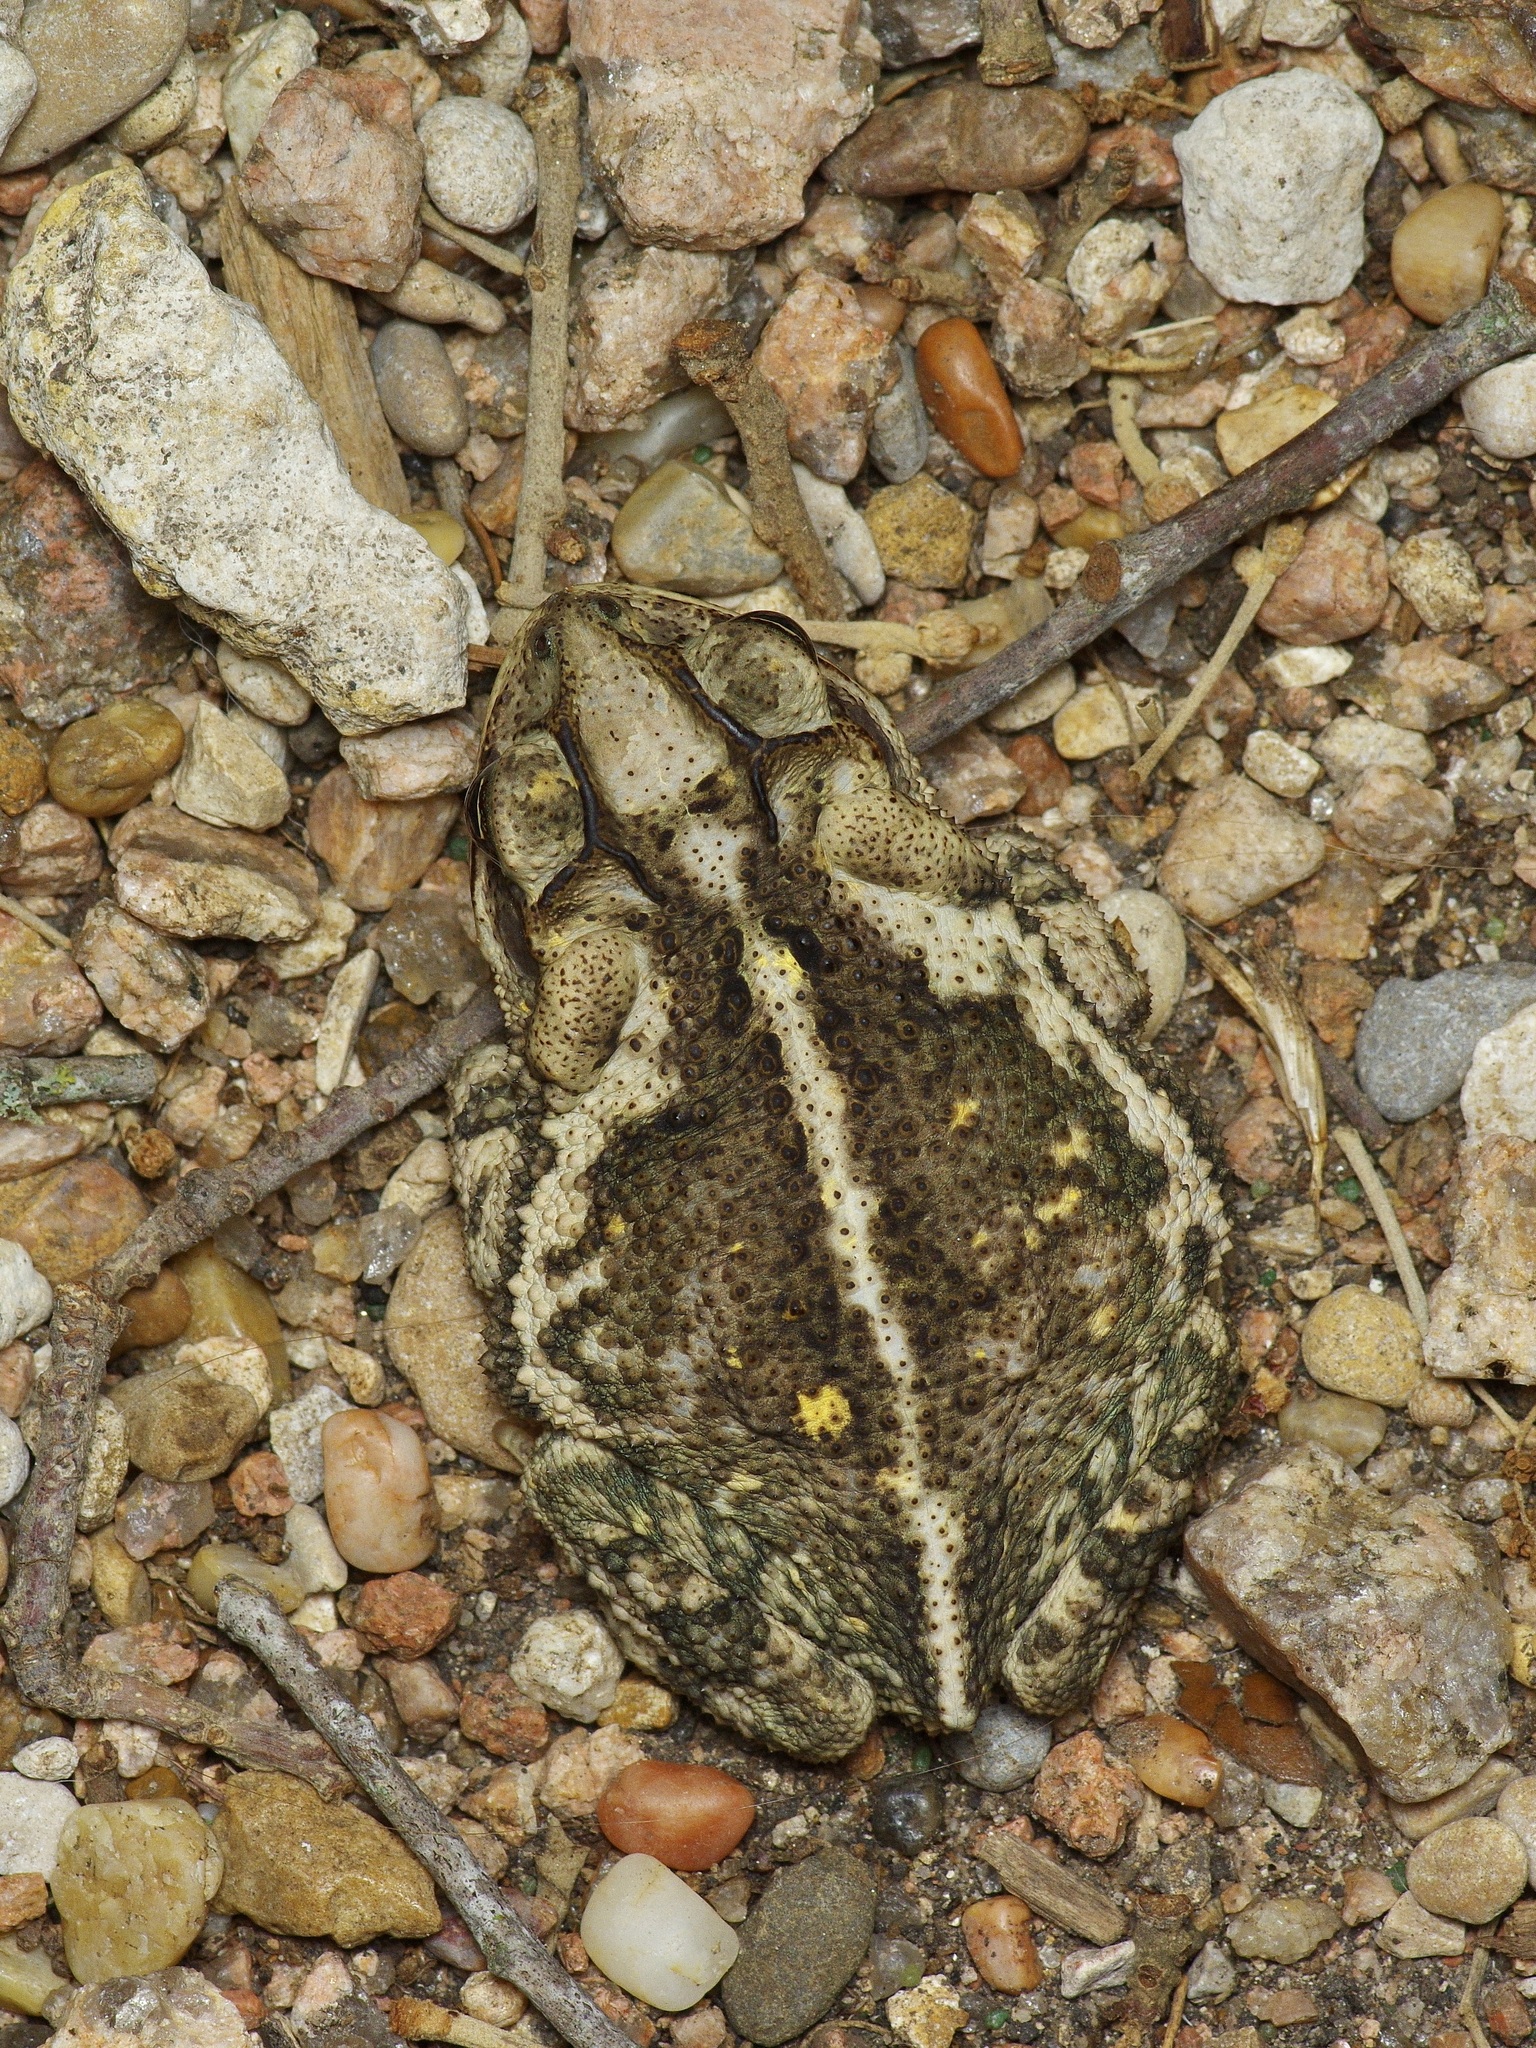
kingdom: Animalia
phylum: Chordata
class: Amphibia
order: Anura
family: Bufonidae
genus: Incilius
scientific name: Incilius nebulifer
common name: Gulf coast toad
